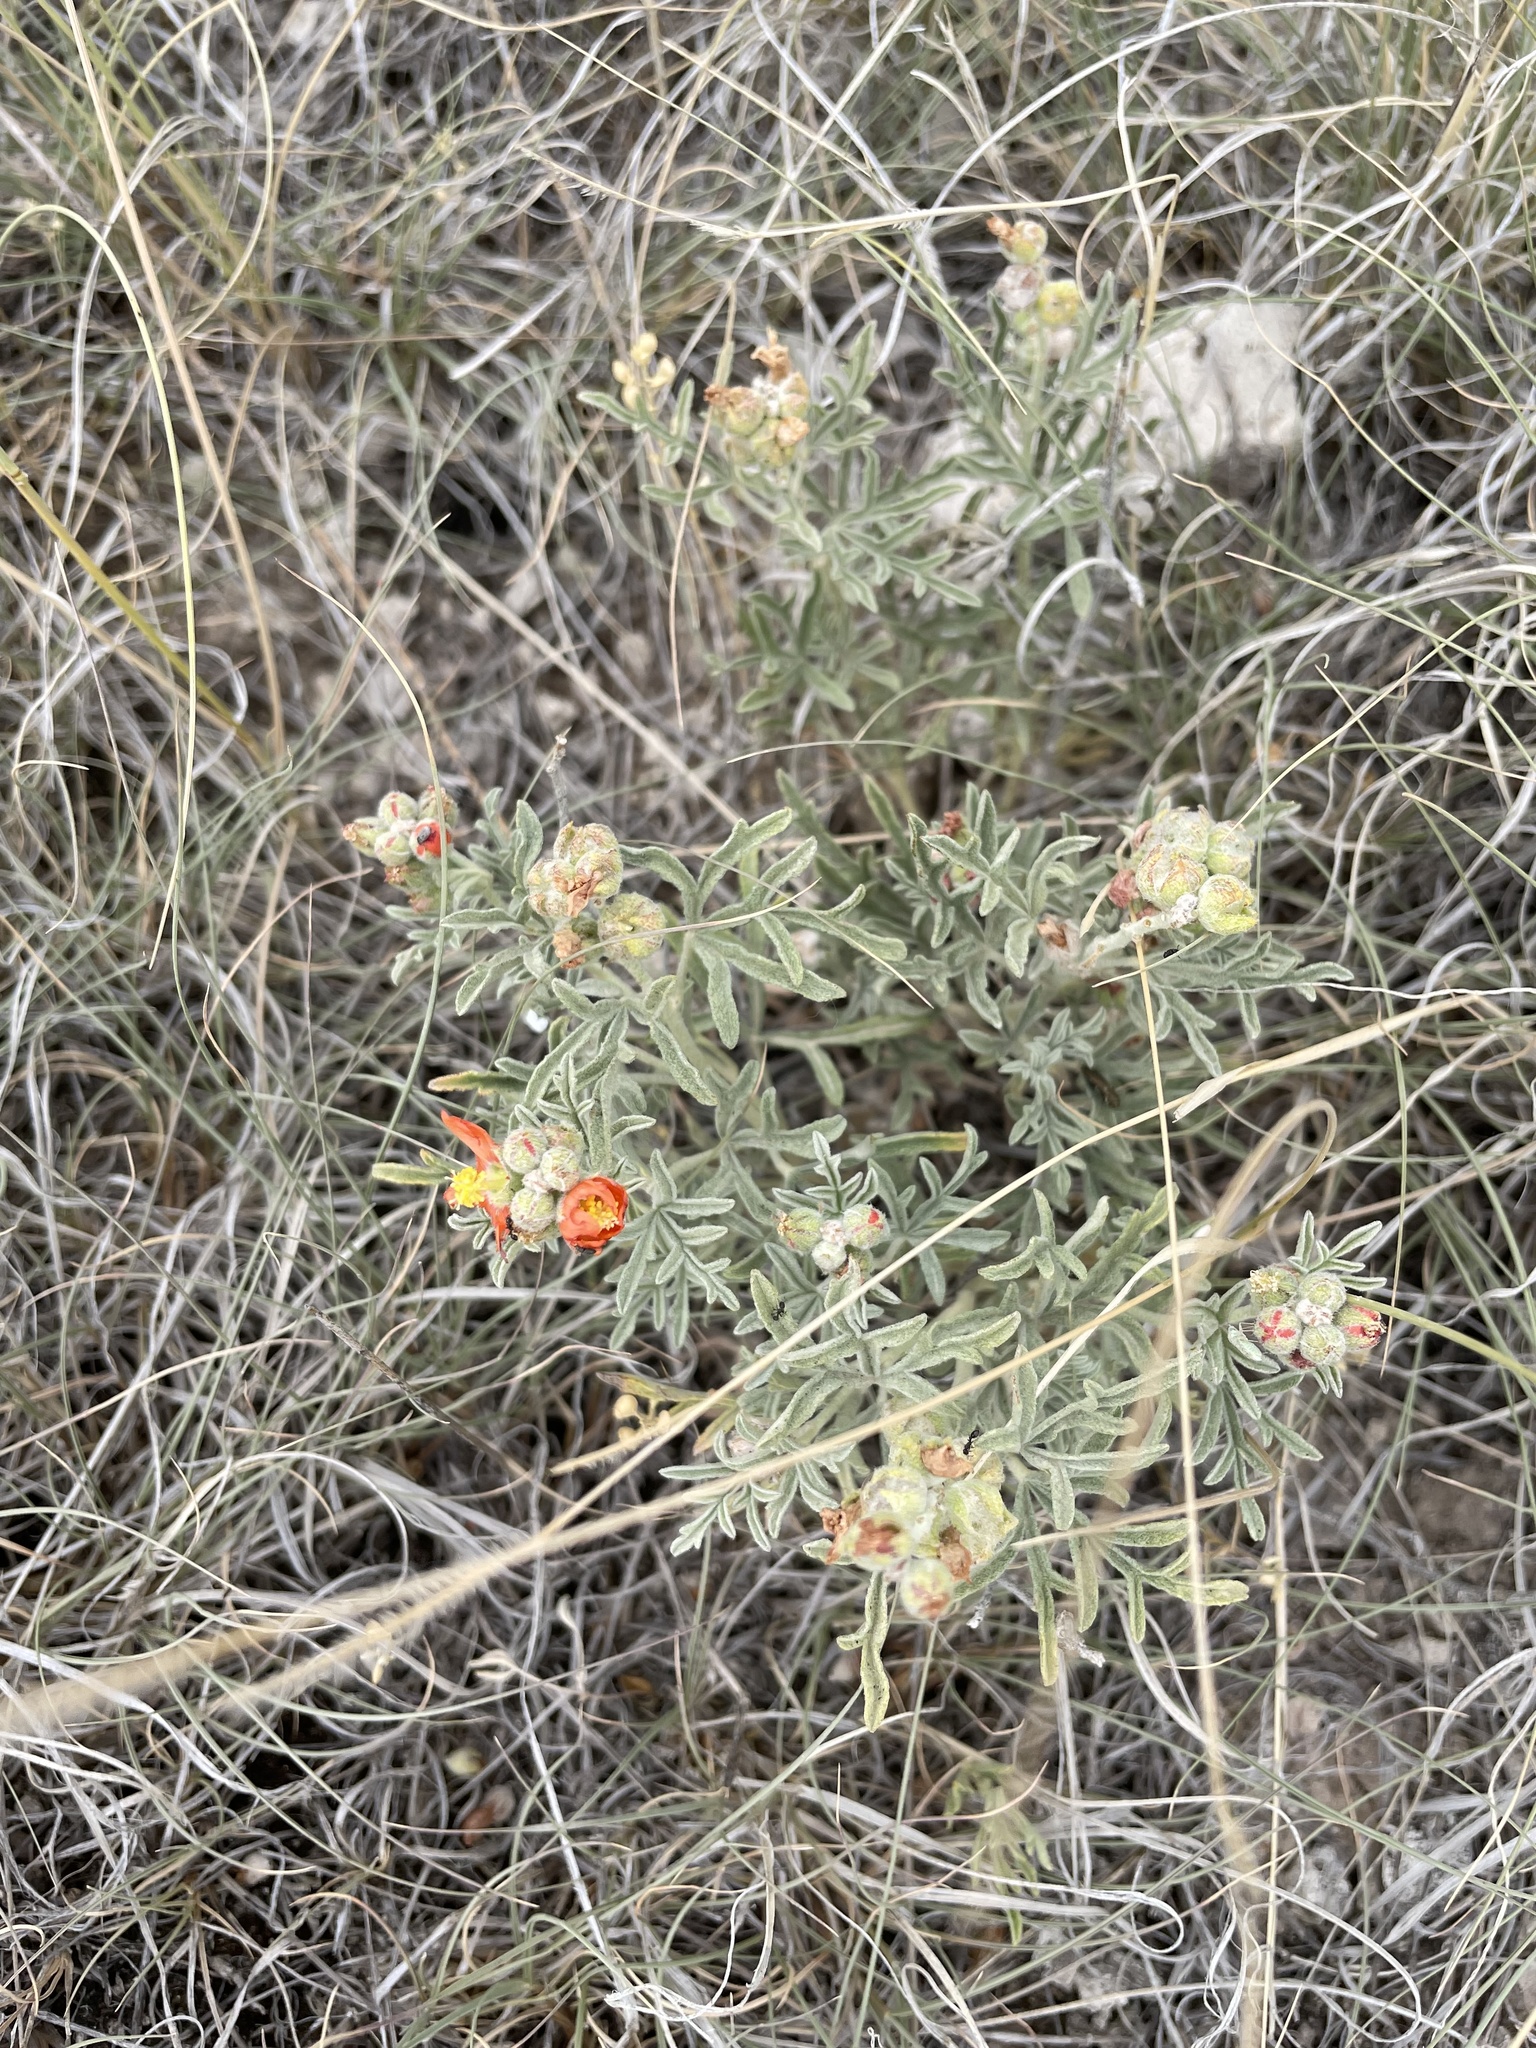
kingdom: Plantae
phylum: Tracheophyta
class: Magnoliopsida
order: Malvales
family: Malvaceae
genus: Sphaeralcea
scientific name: Sphaeralcea coccinea
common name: Moss-rose
